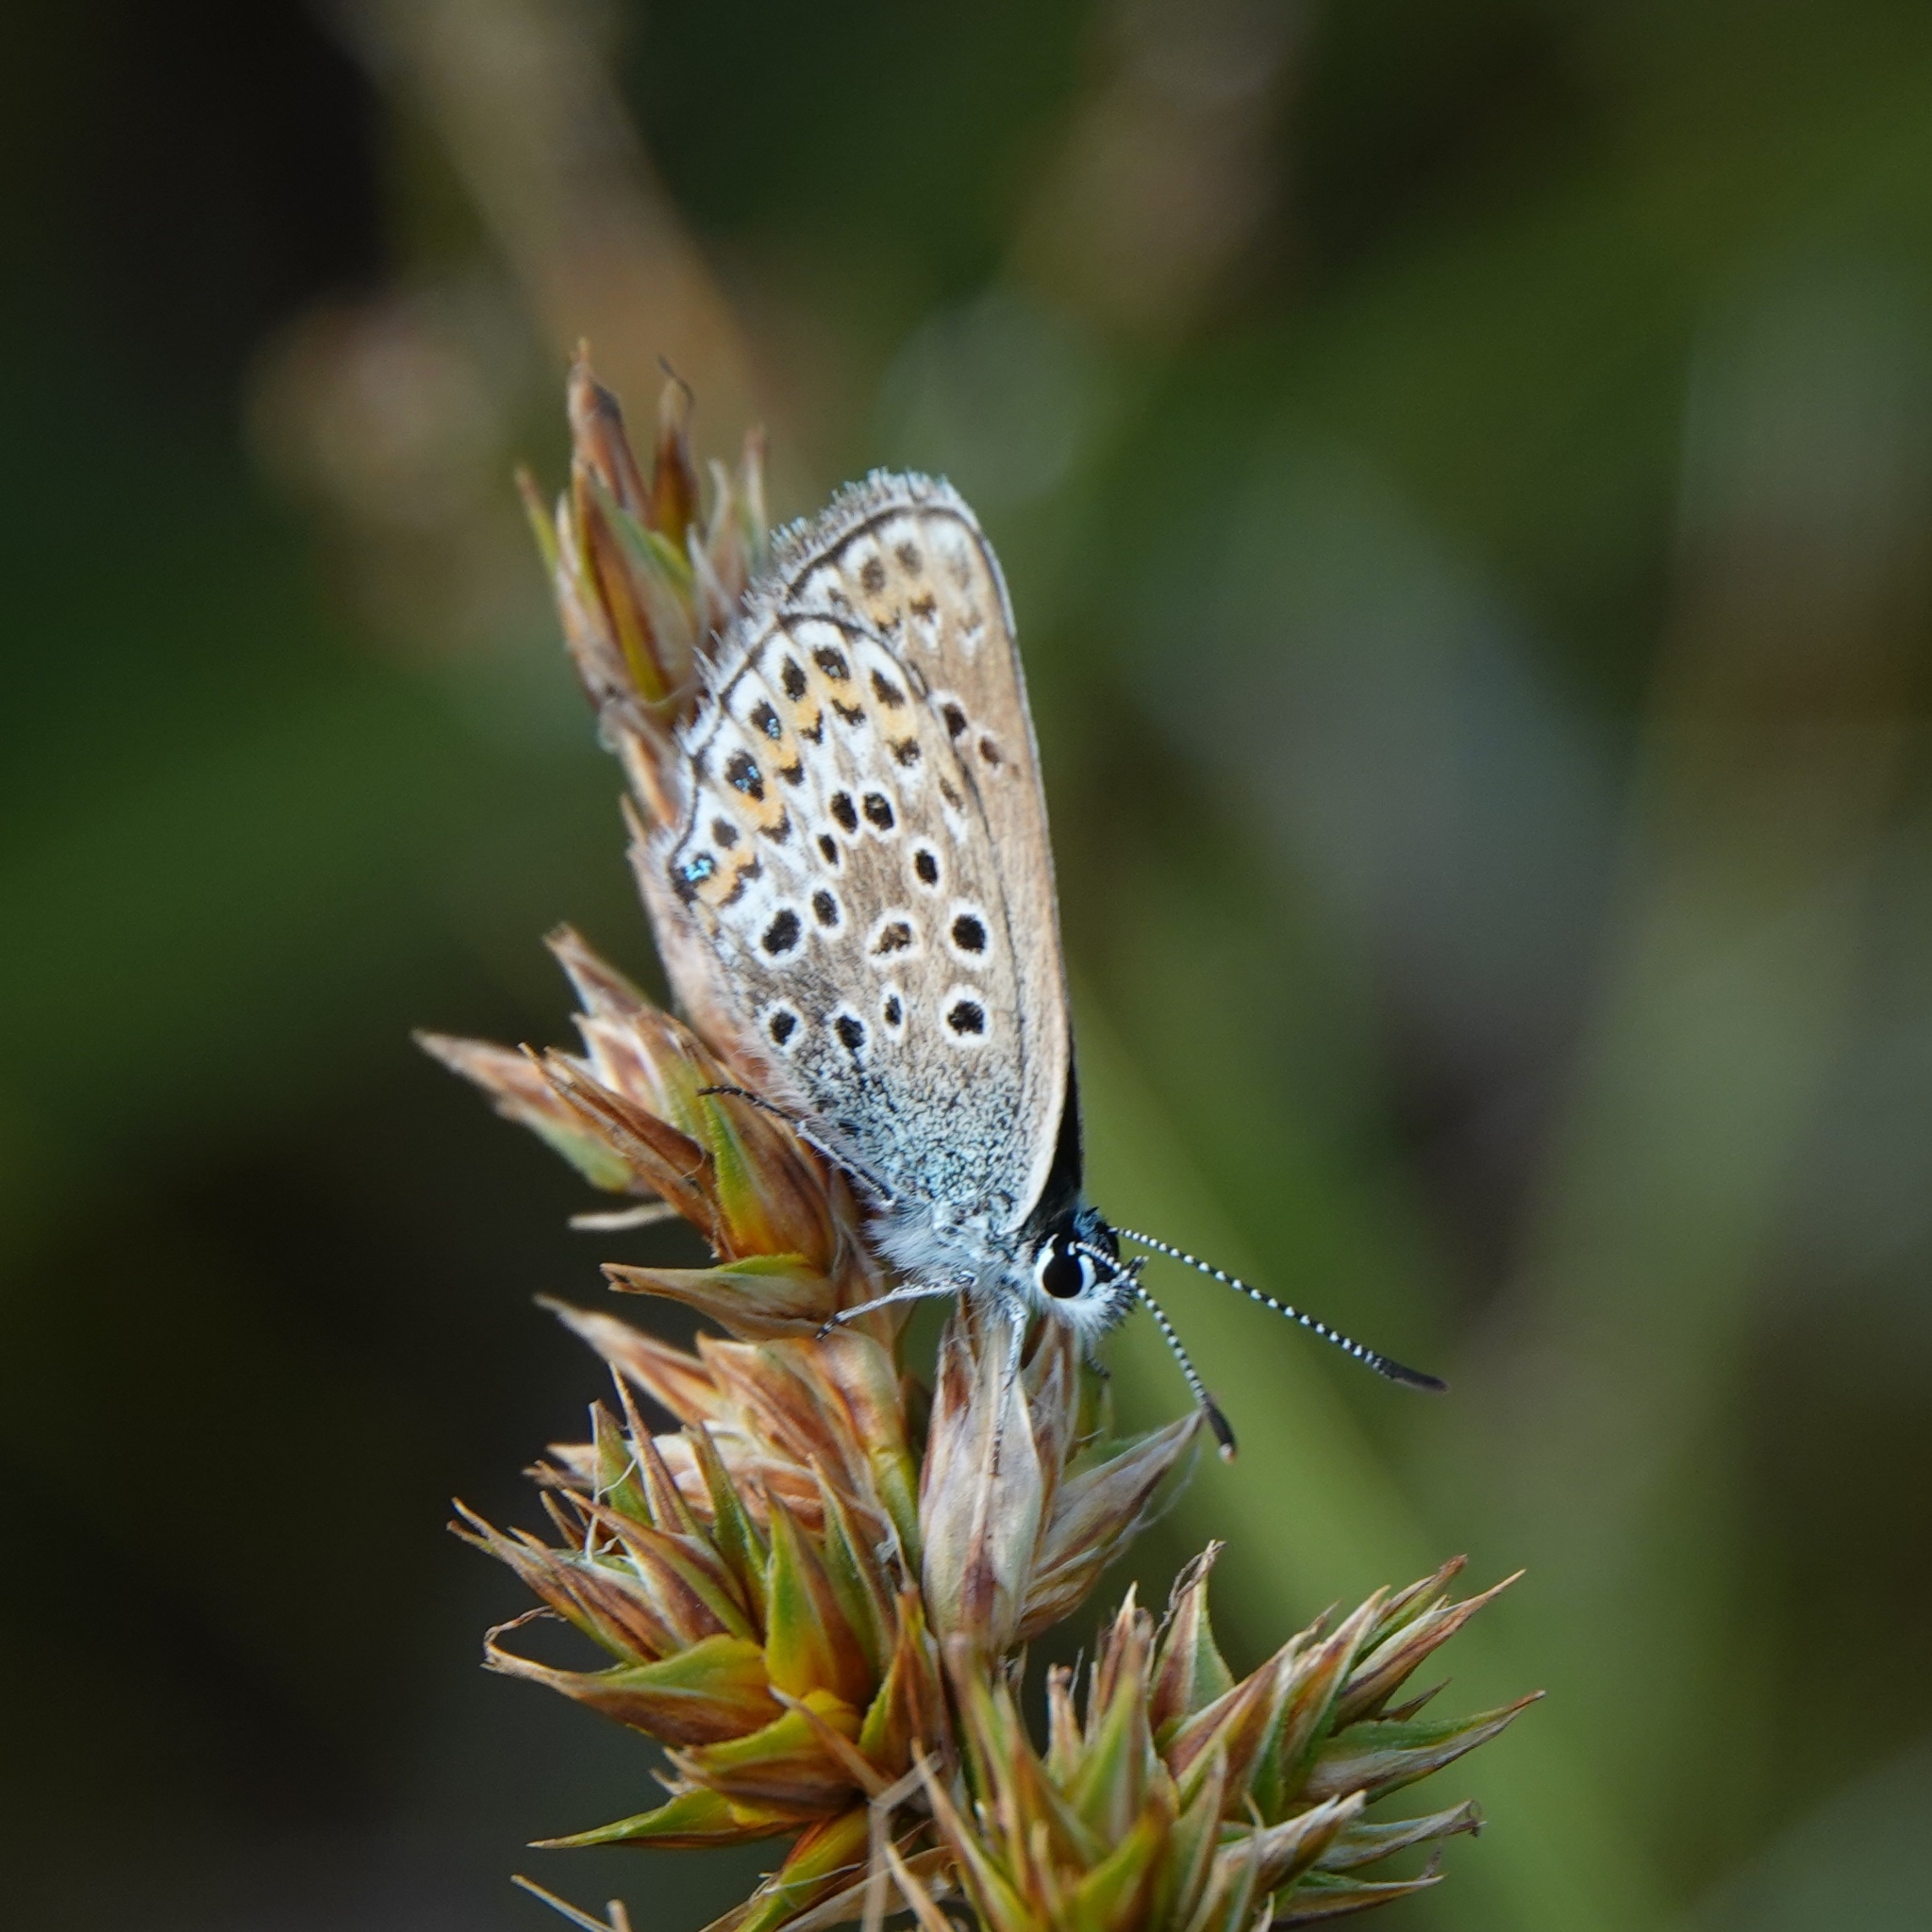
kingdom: Animalia
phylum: Arthropoda
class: Insecta
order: Lepidoptera
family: Lycaenidae
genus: Plebejus
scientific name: Plebejus argus
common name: Silver-studded blue
